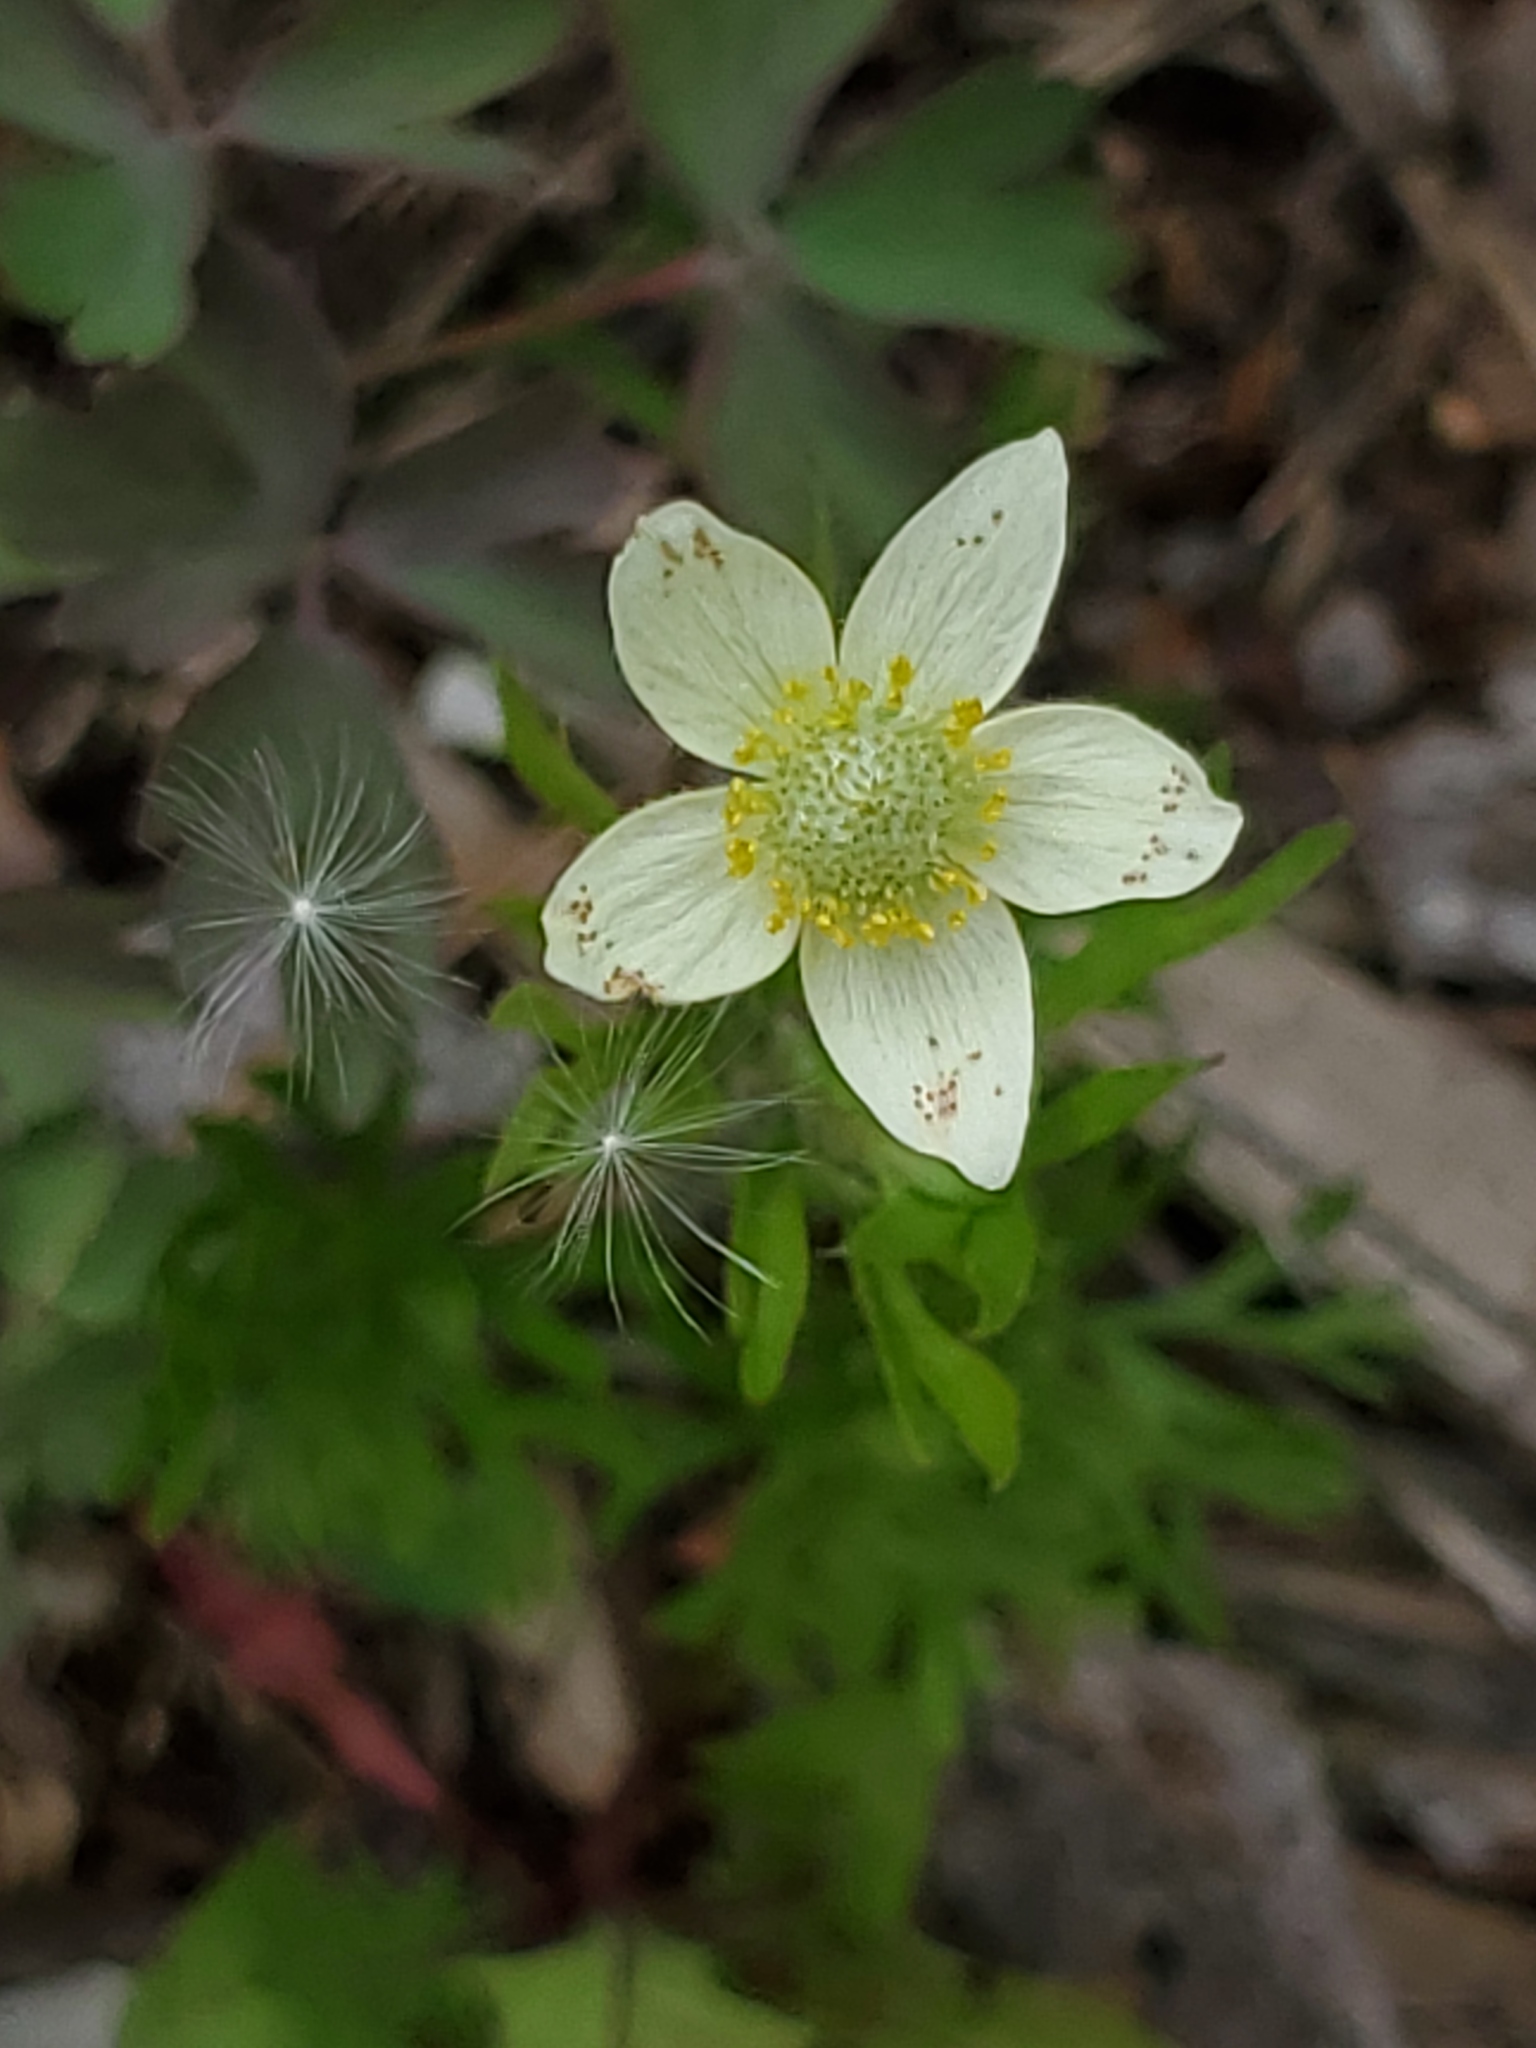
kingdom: Plantae
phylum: Tracheophyta
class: Magnoliopsida
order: Ranunculales
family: Ranunculaceae
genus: Anemone
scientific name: Anemone multifida
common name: Bird's-foot anemone
